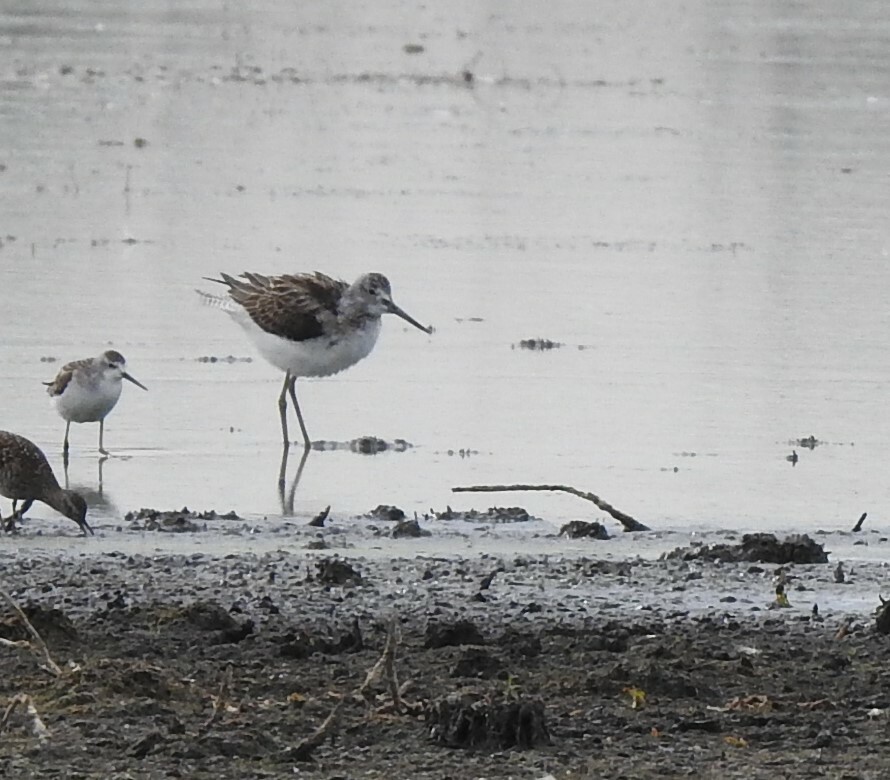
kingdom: Animalia
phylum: Chordata
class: Aves
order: Charadriiformes
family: Scolopacidae
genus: Tringa
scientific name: Tringa nebularia
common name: Common greenshank
